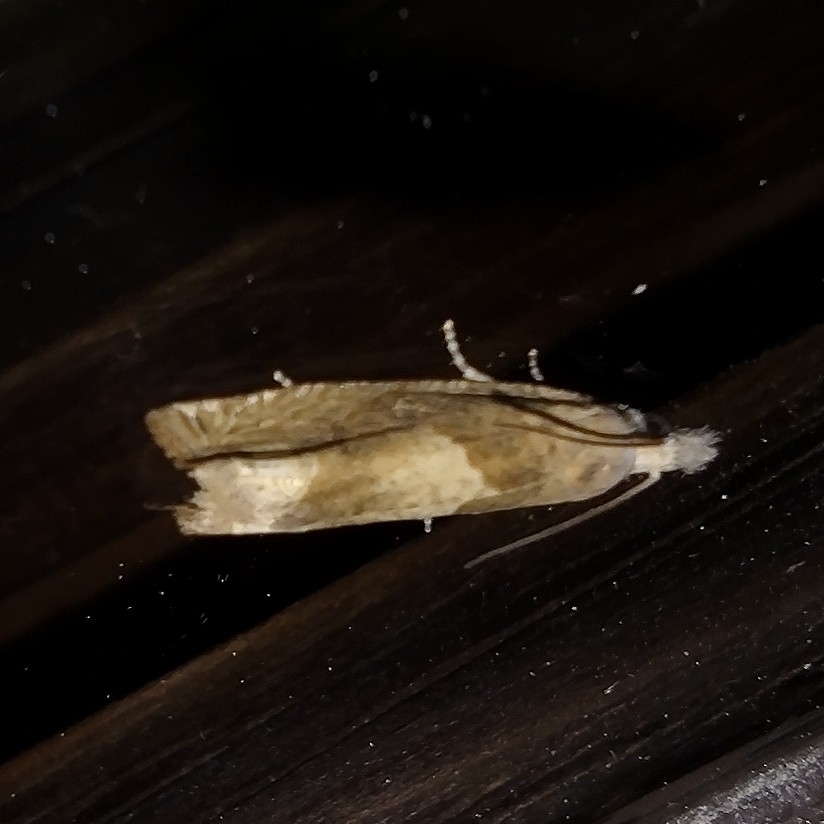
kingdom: Animalia
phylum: Arthropoda
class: Insecta
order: Lepidoptera
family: Tortricidae
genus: Eucosma
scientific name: Eucosma conterminana
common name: Pale lettuce bell
